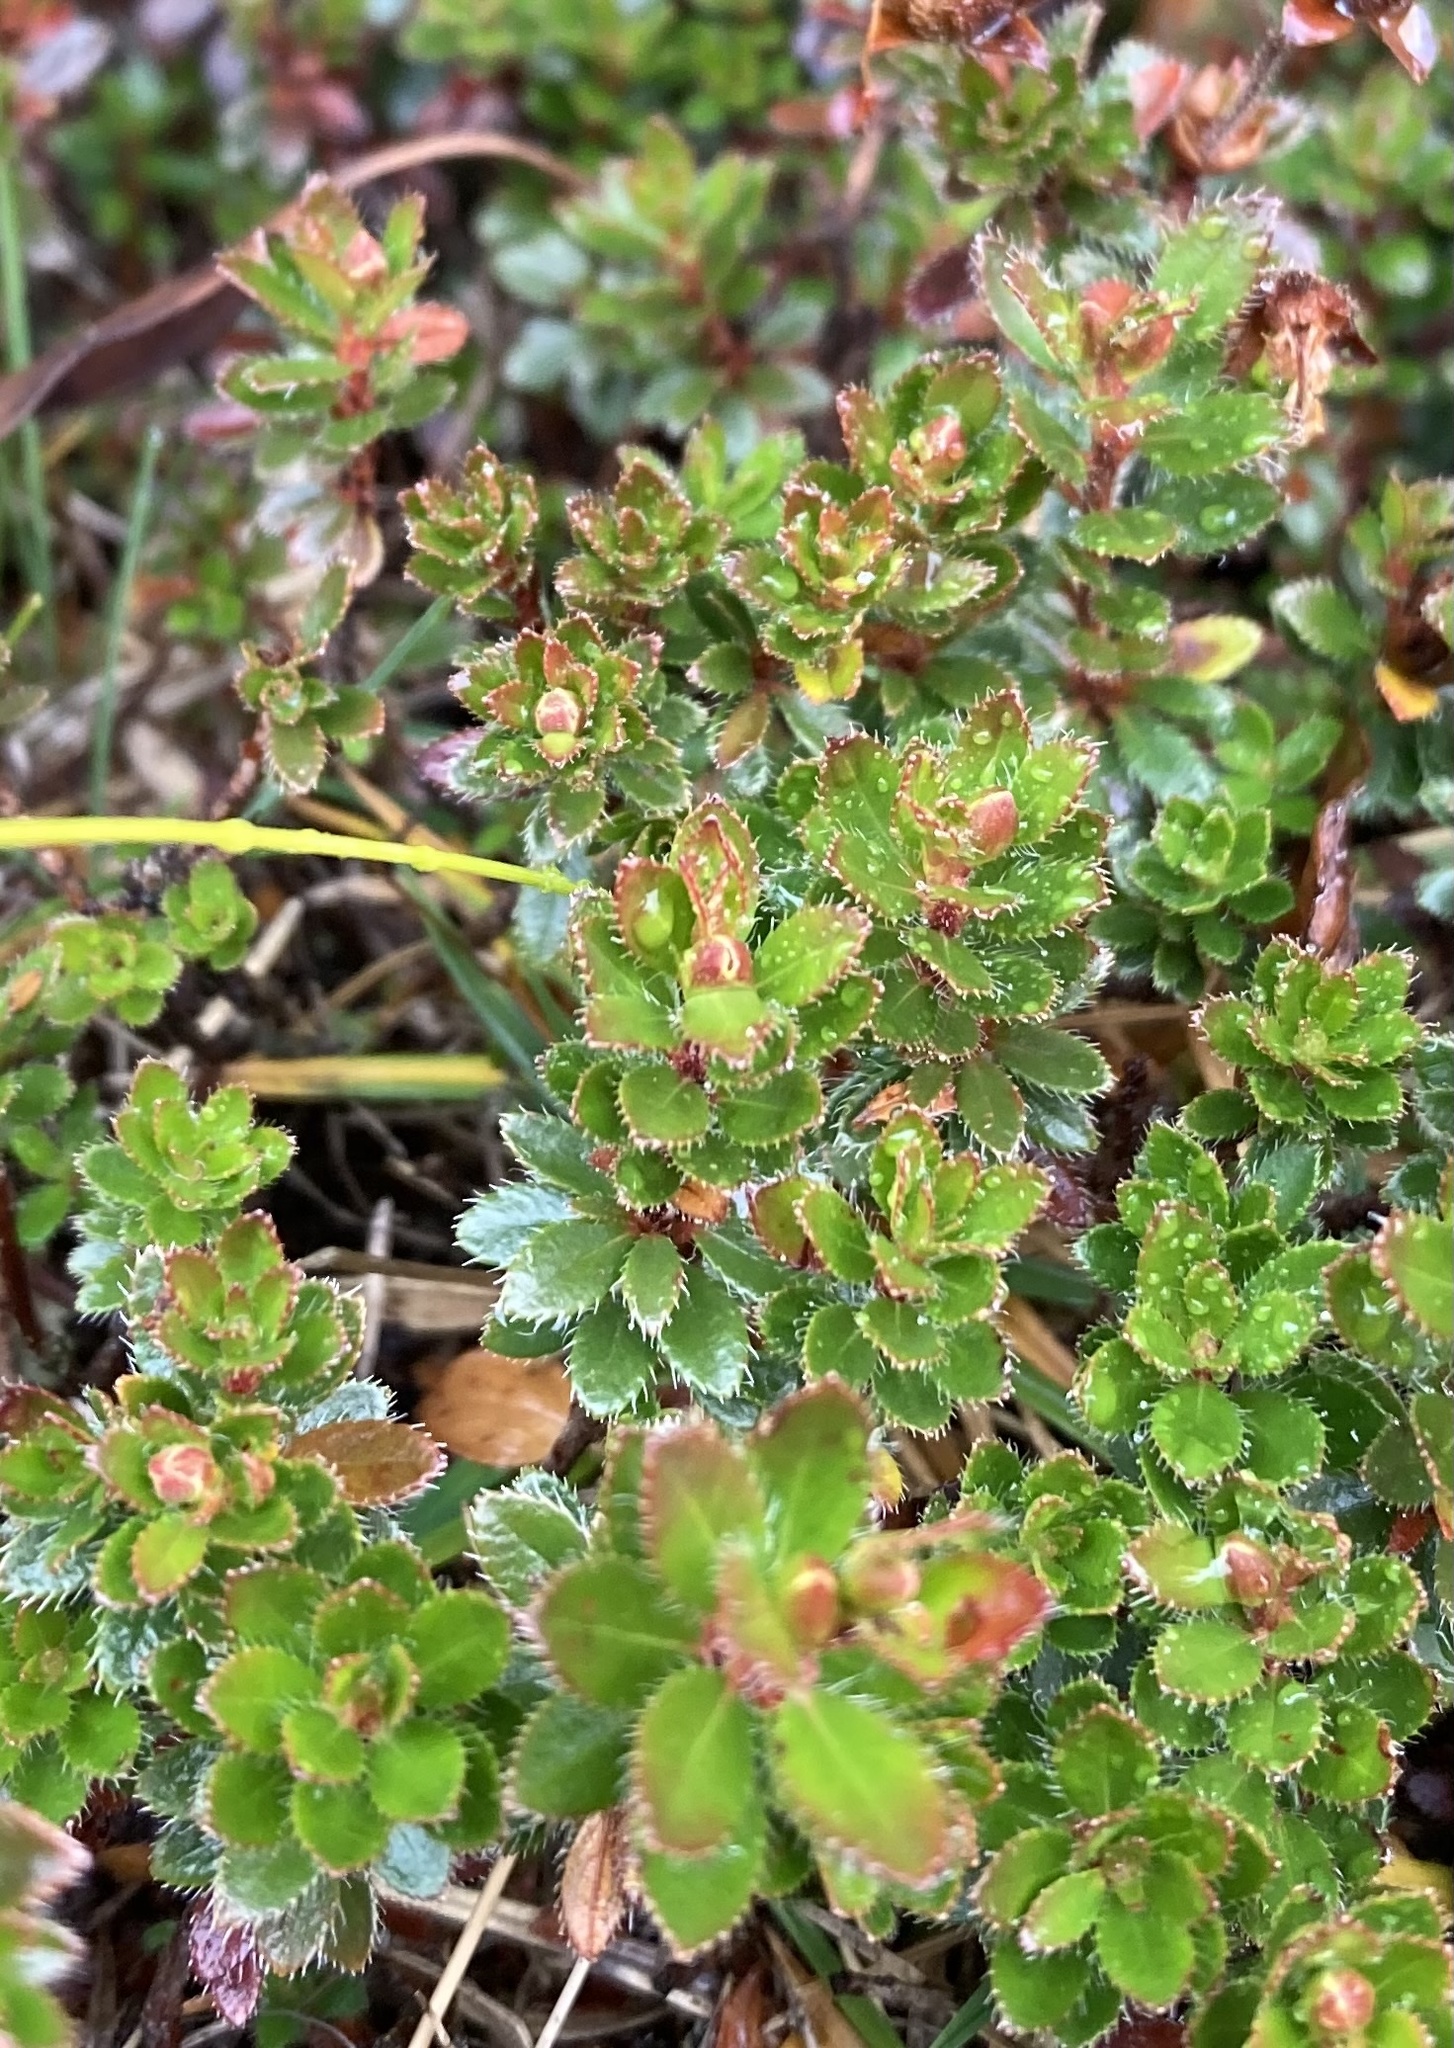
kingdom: Plantae
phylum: Tracheophyta
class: Magnoliopsida
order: Ericales
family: Ericaceae
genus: Rhodothamnus
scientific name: Rhodothamnus chamaecistus
